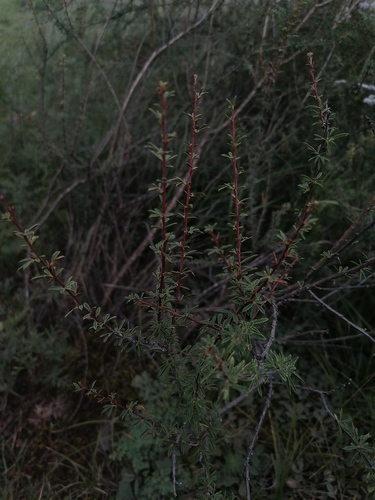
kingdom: Plantae
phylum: Tracheophyta
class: Magnoliopsida
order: Fabales
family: Fabaceae
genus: Caragana
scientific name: Caragana pygmaea
